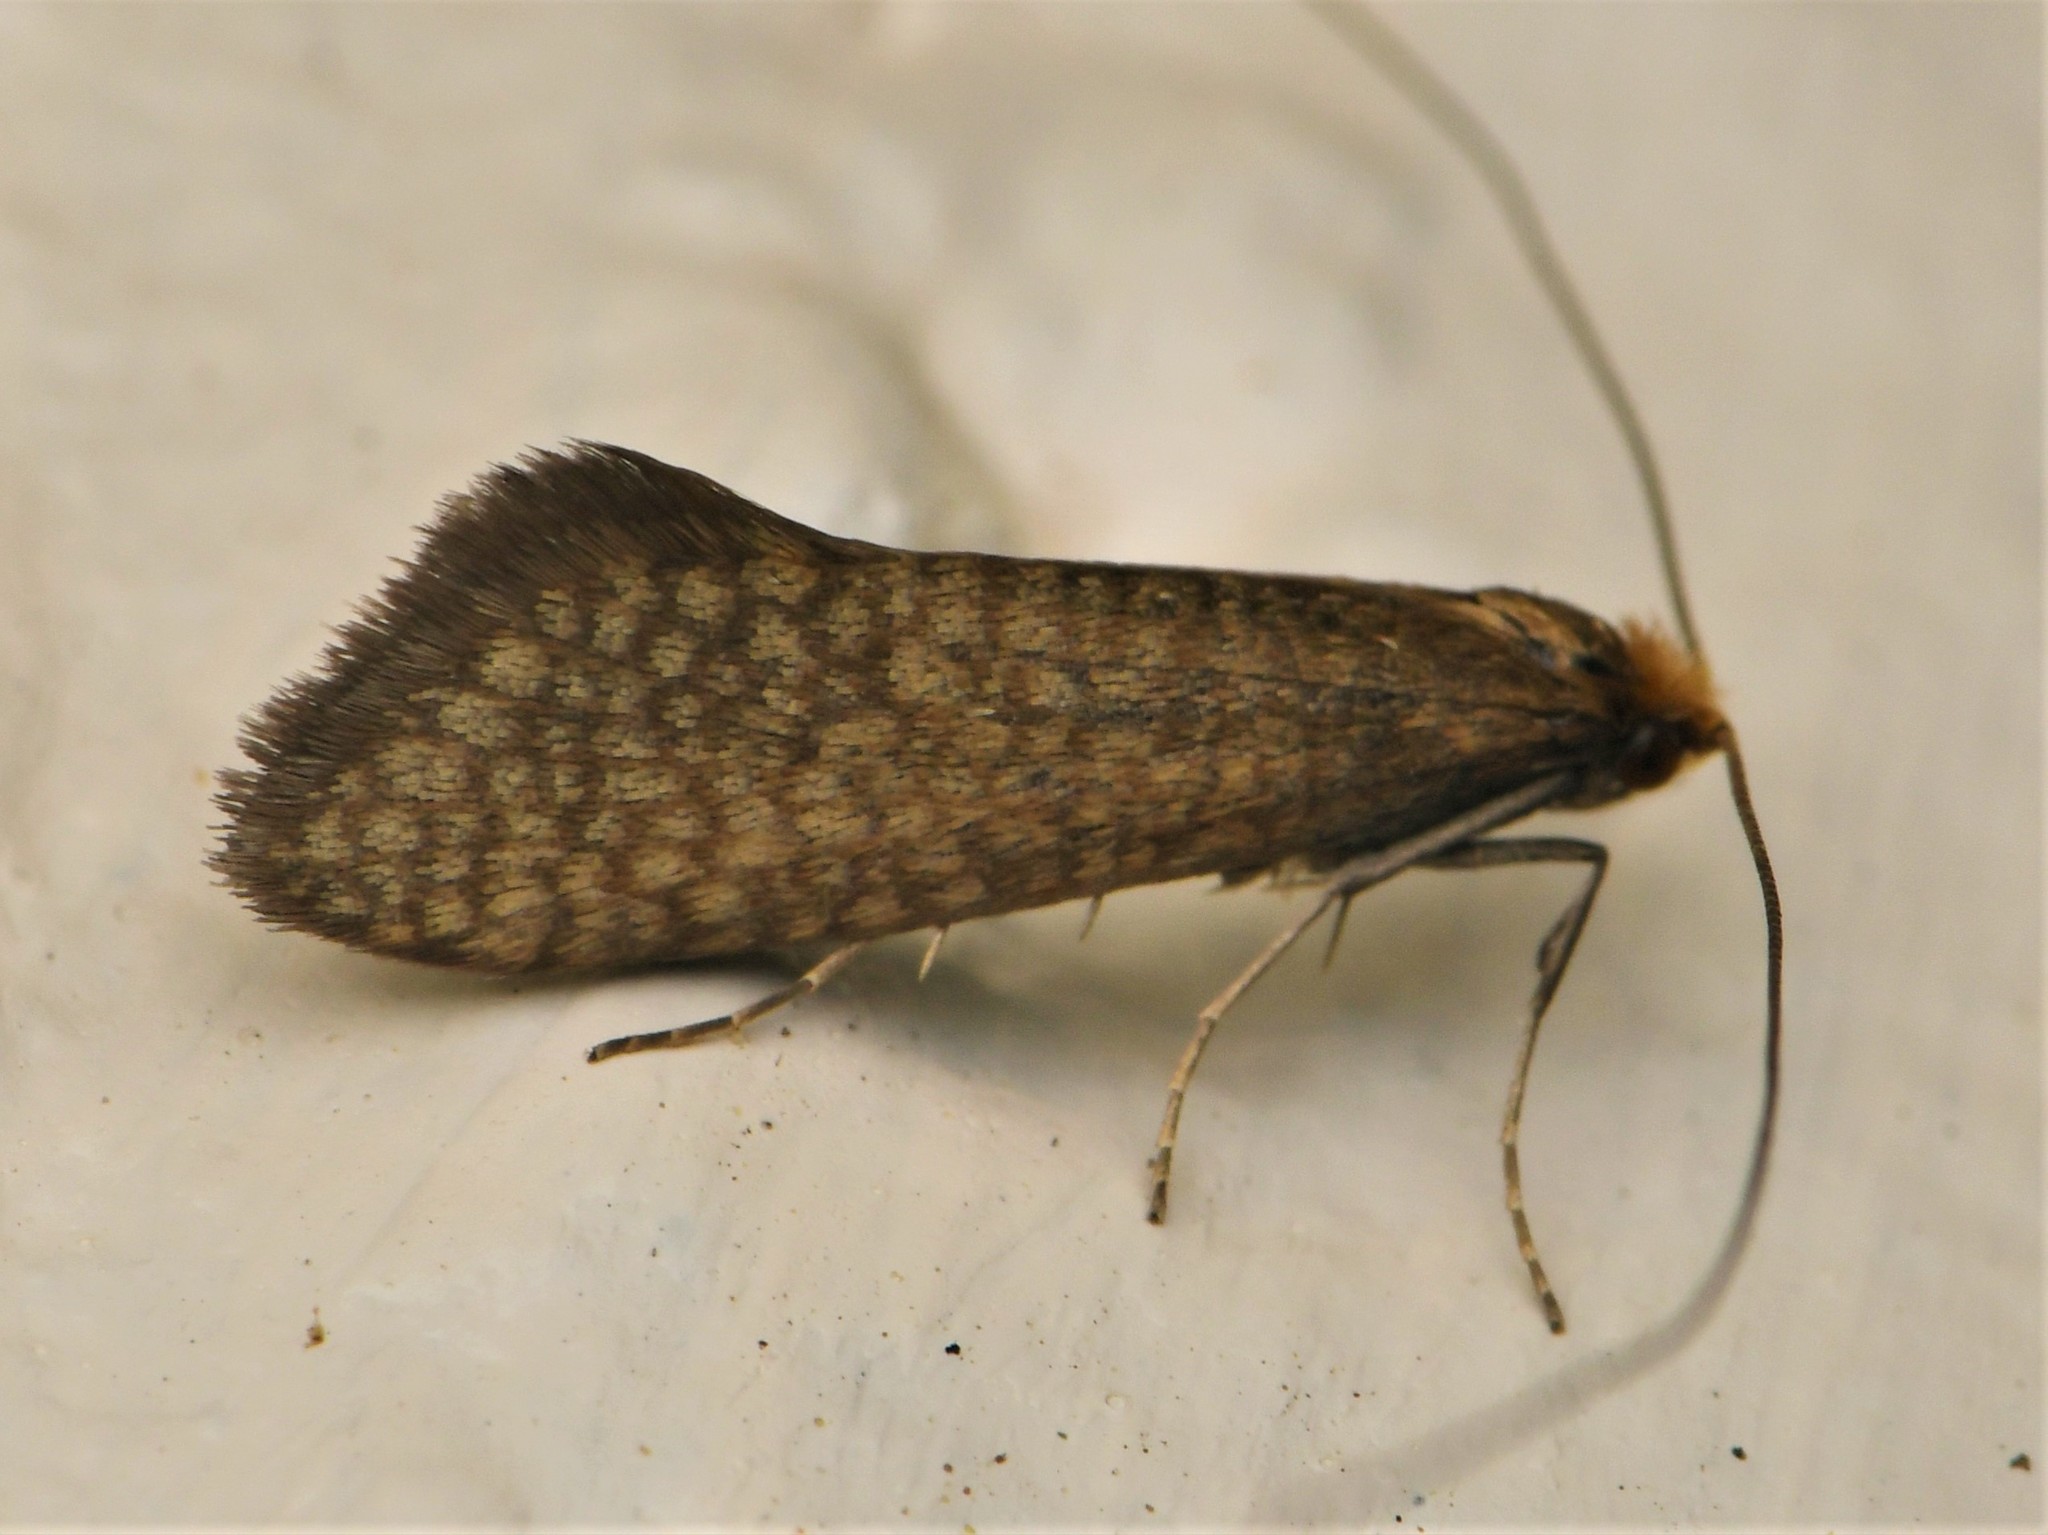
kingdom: Animalia
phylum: Arthropoda
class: Insecta
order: Lepidoptera
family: Adelidae
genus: Nematopogon
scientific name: Nematopogon adansoniella
